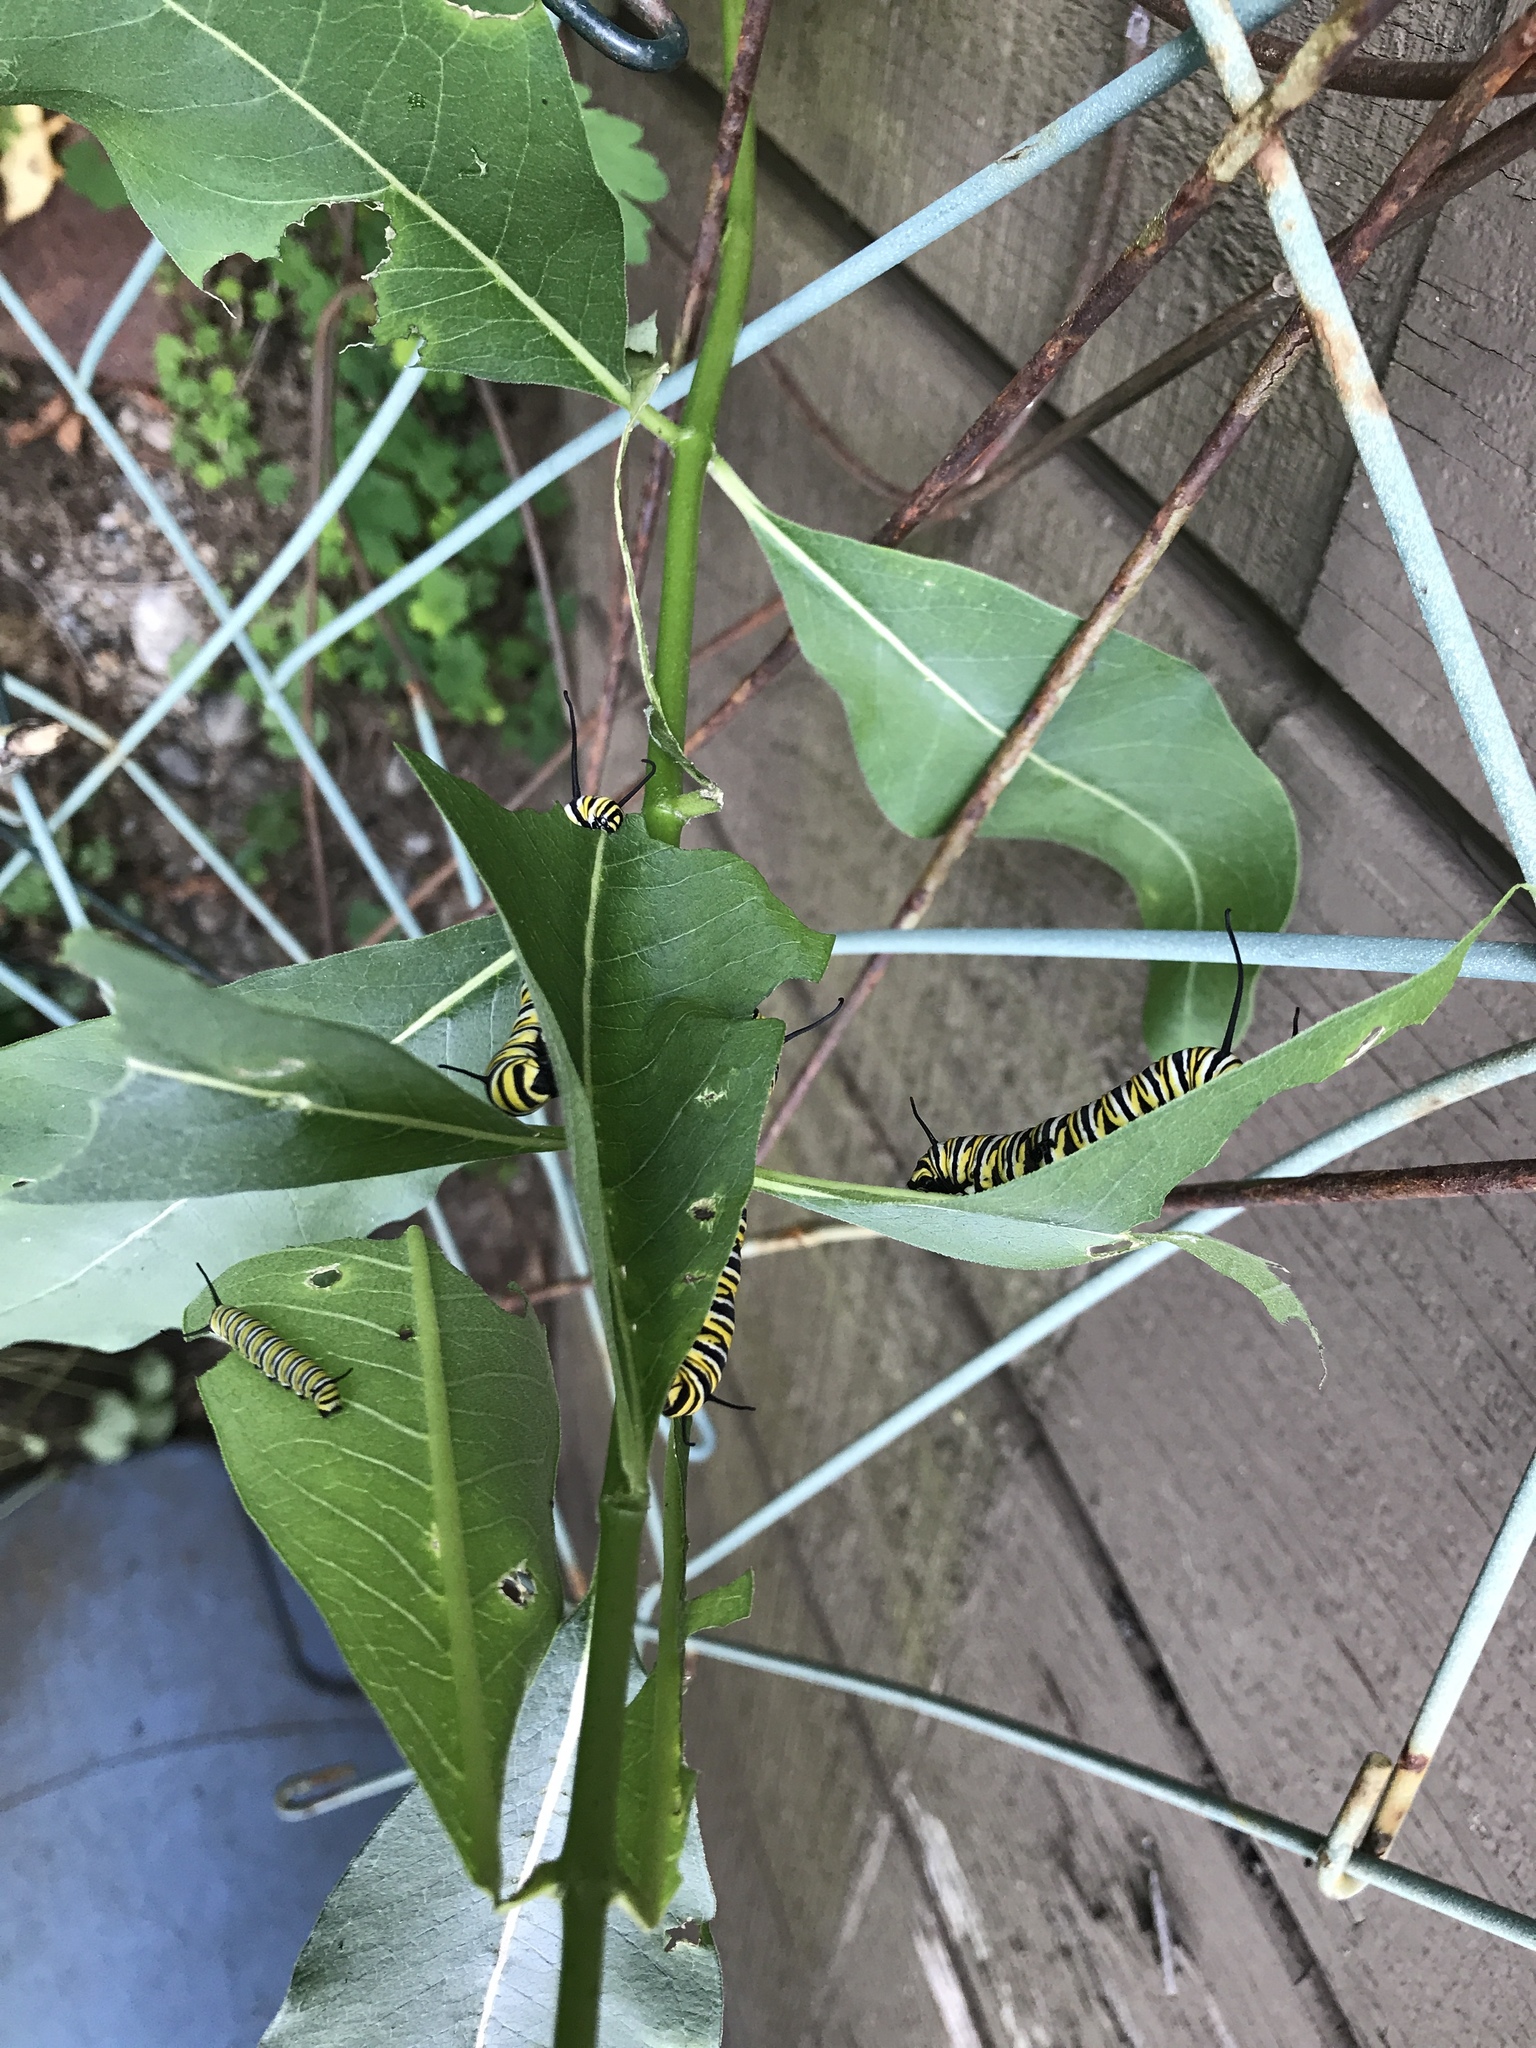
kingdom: Animalia
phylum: Arthropoda
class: Insecta
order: Lepidoptera
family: Nymphalidae
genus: Danaus
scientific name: Danaus plexippus
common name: Monarch
